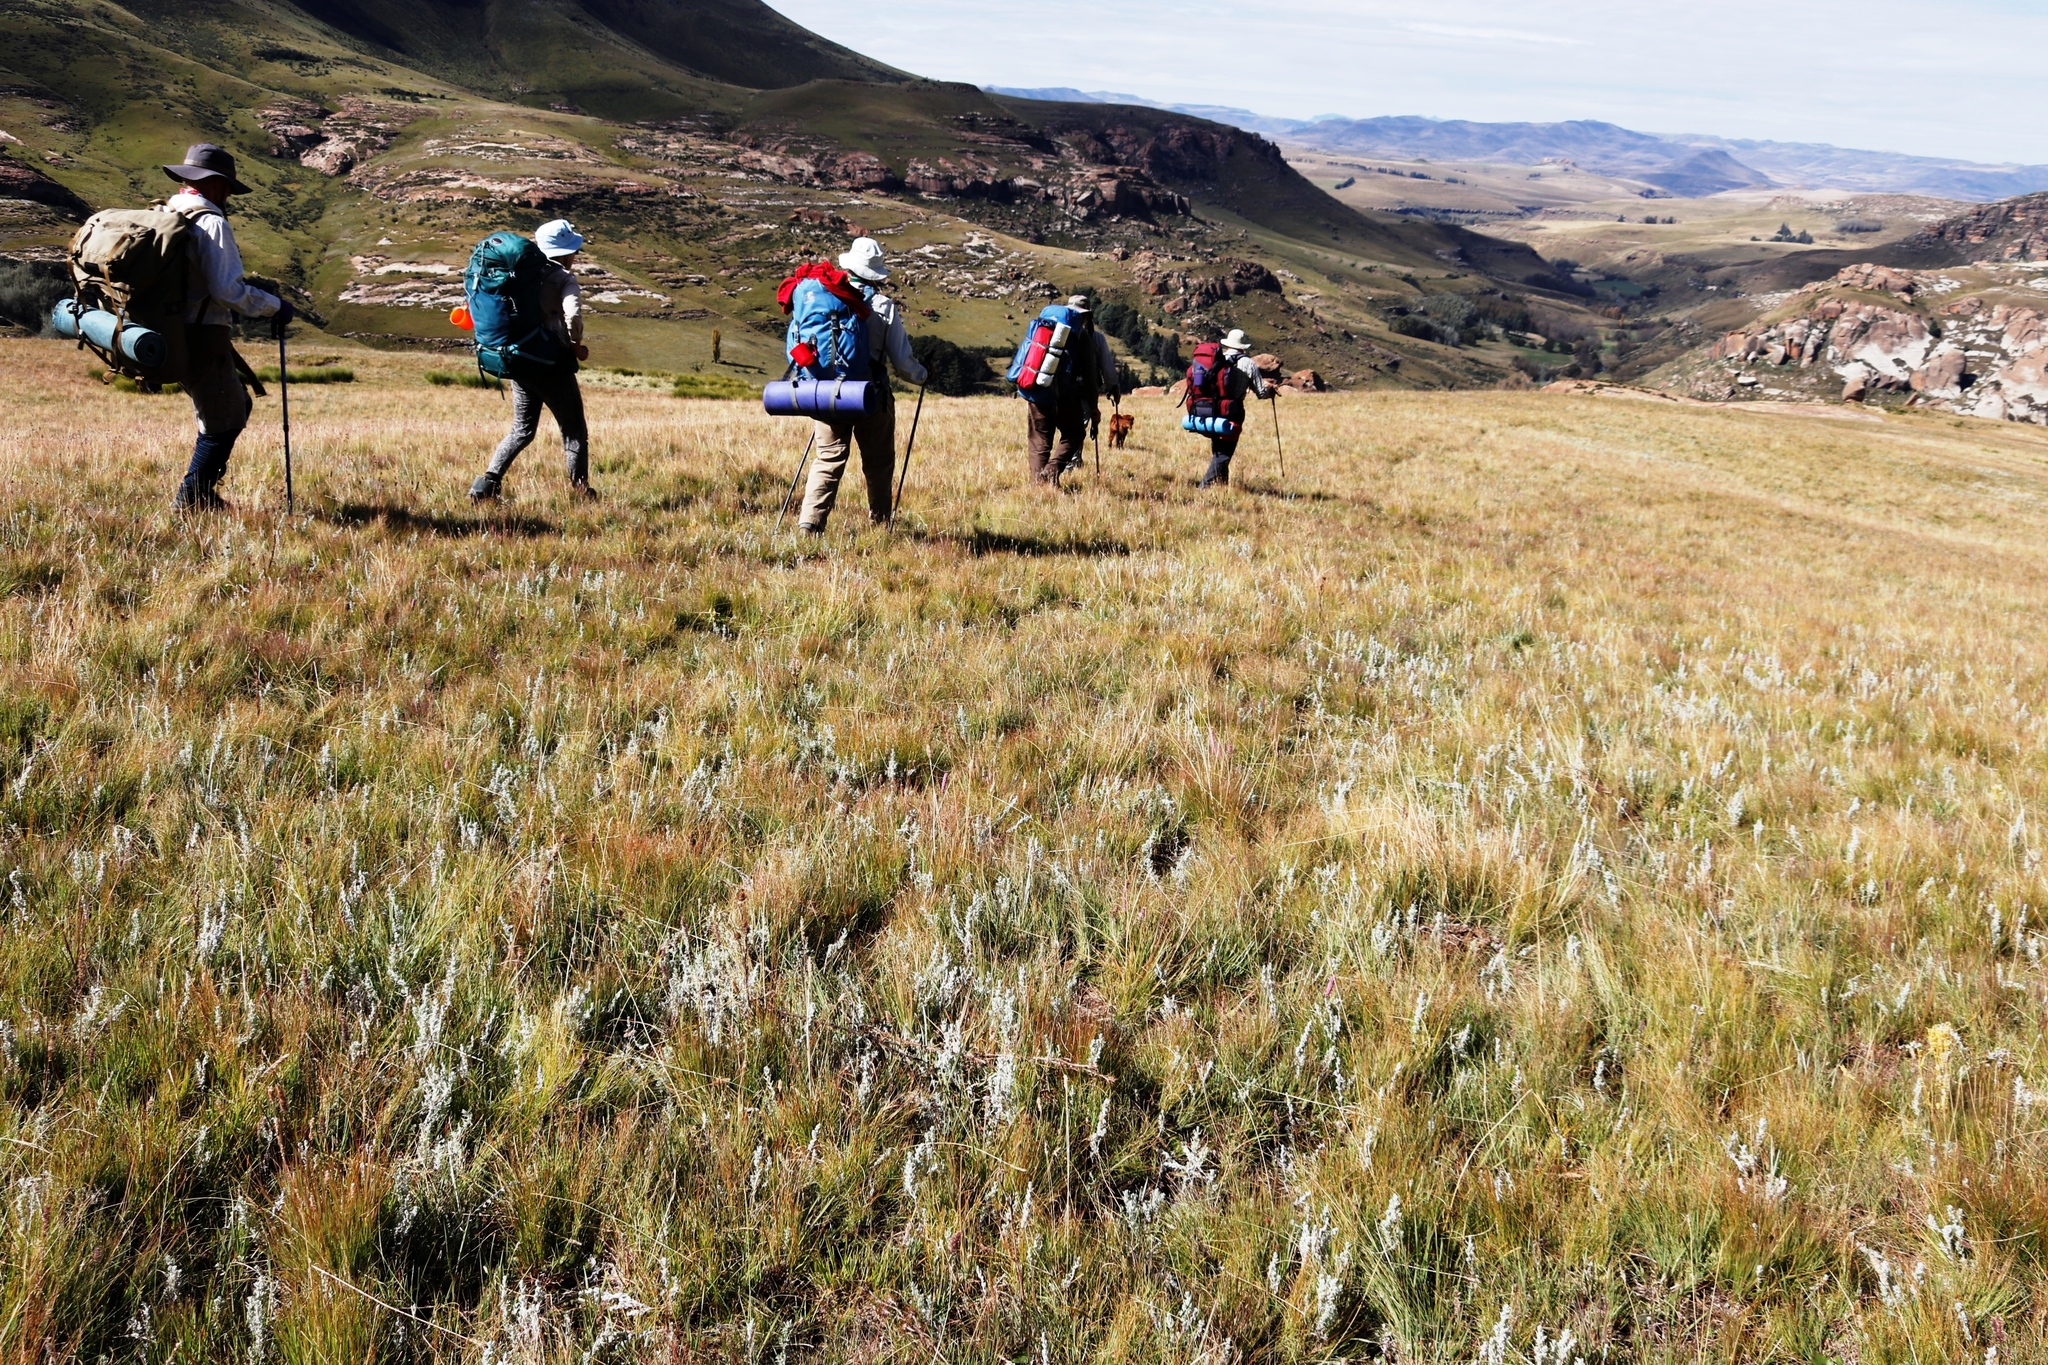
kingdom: Plantae
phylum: Tracheophyta
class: Liliopsida
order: Poales
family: Poaceae
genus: Stiburus
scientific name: Stiburus alopecuroides
